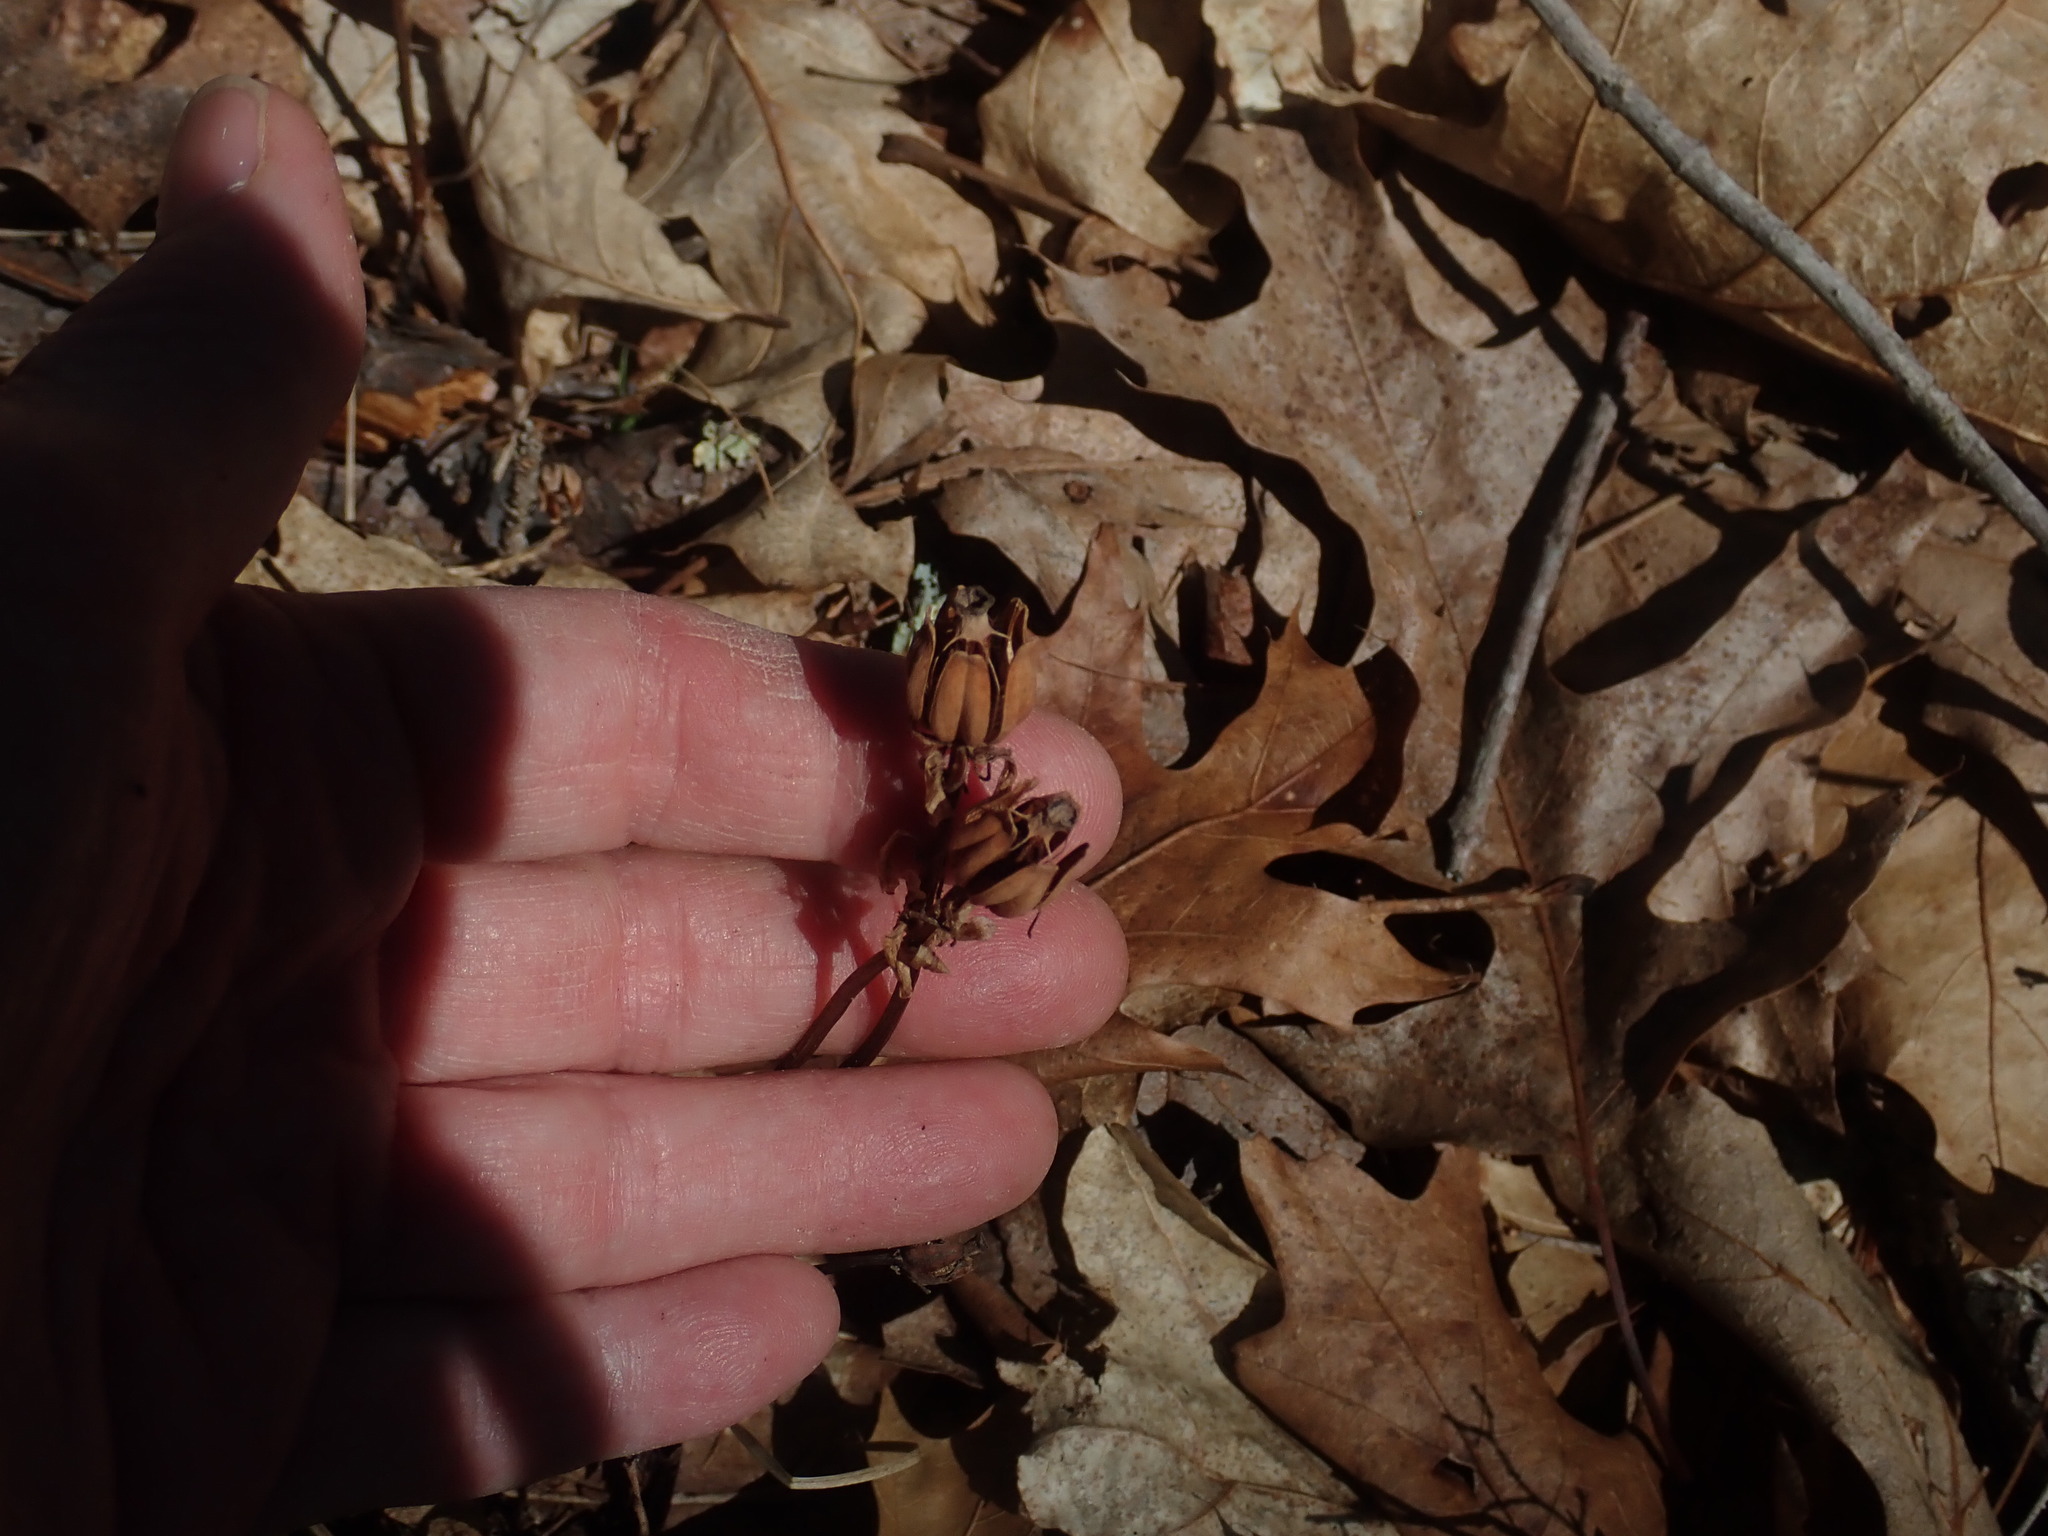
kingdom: Plantae
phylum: Tracheophyta
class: Magnoliopsida
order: Ericales
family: Ericaceae
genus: Monotropa
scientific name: Monotropa uniflora
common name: Convulsion root
